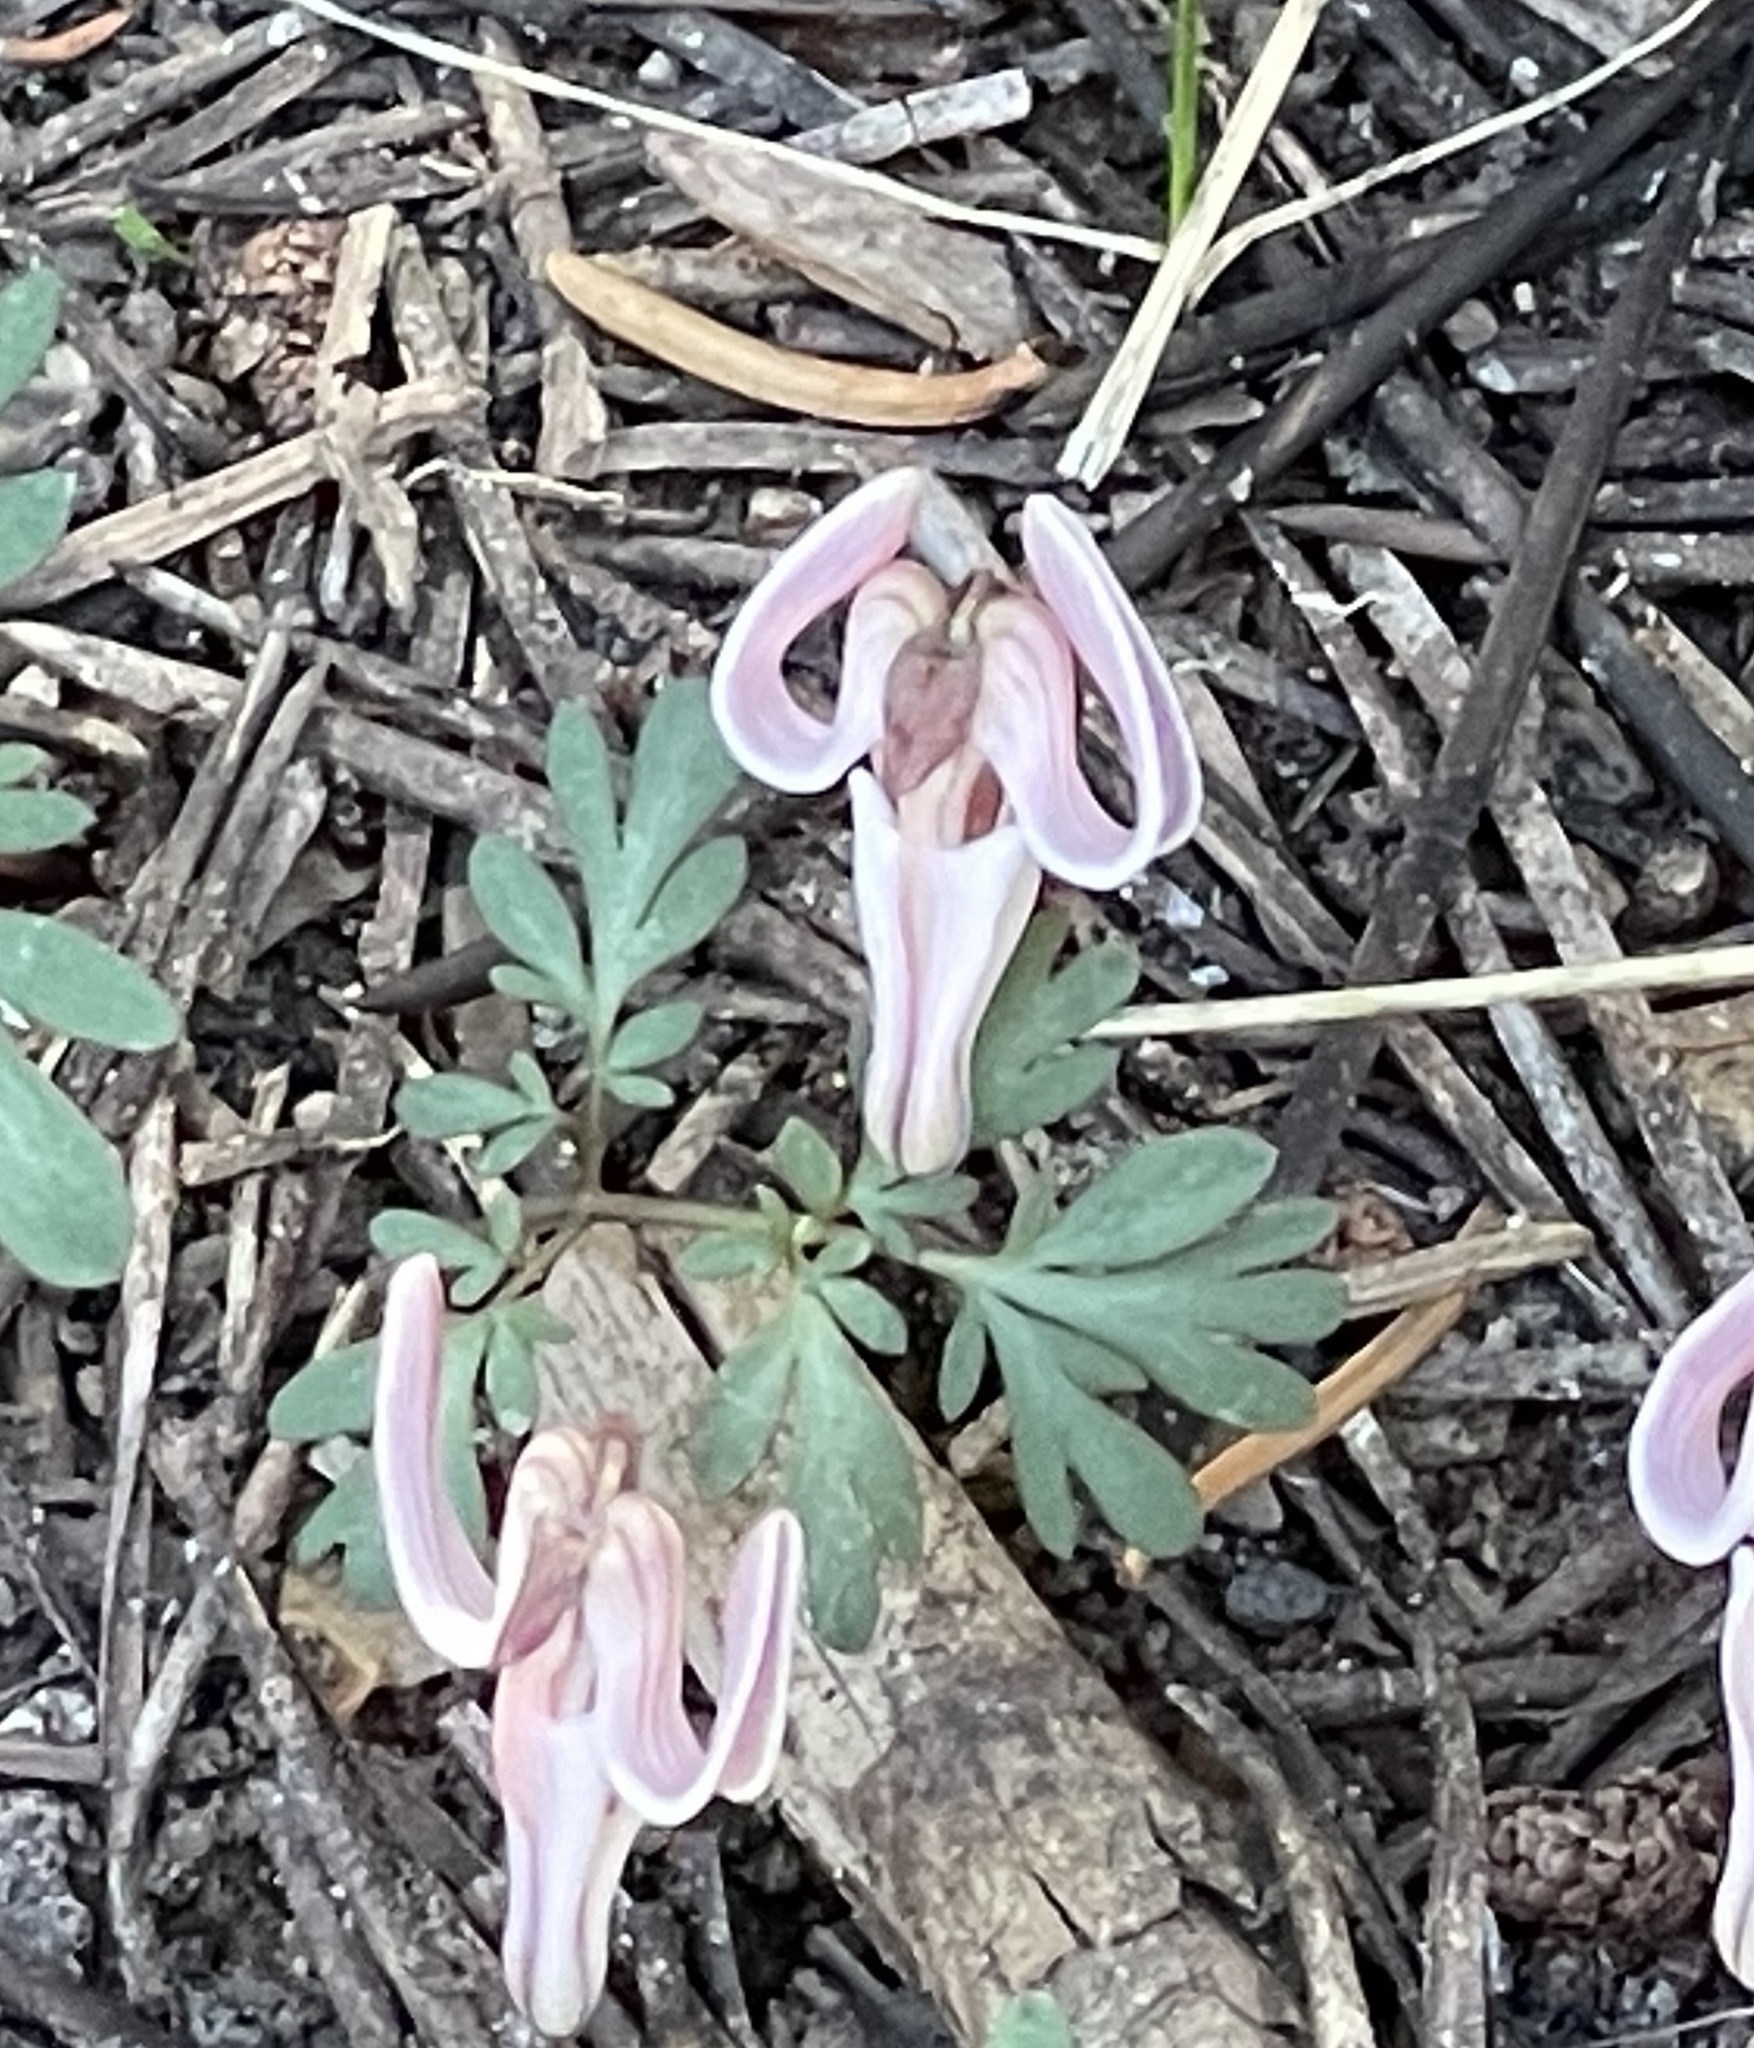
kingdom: Plantae
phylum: Tracheophyta
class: Magnoliopsida
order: Ranunculales
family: Papaveraceae
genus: Dicentra
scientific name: Dicentra uniflora
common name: Steer's-head
